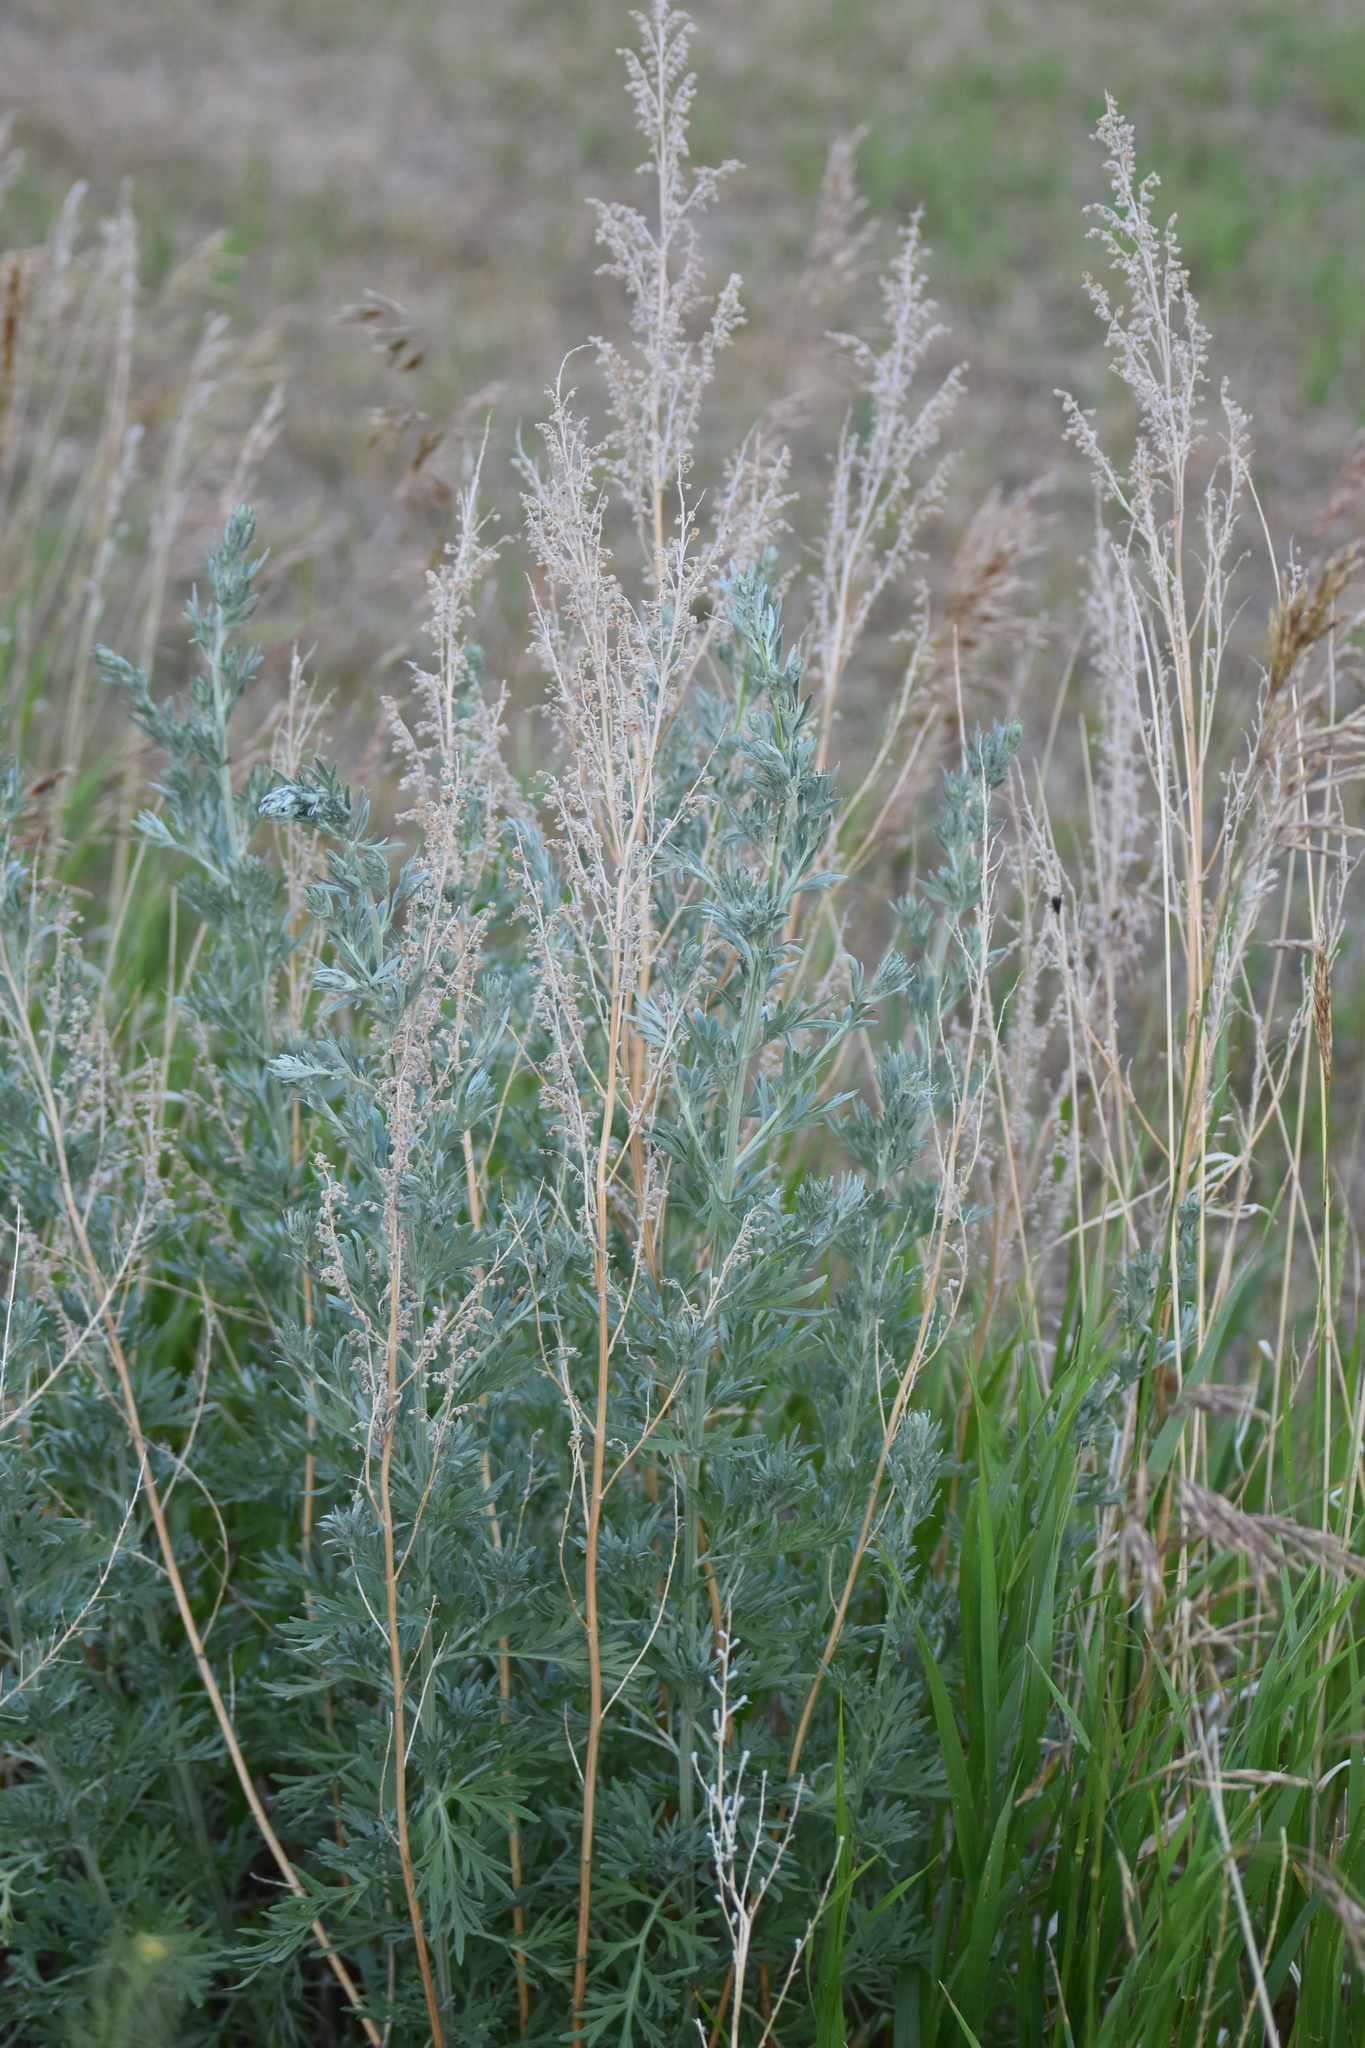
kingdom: Plantae
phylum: Tracheophyta
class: Magnoliopsida
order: Asterales
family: Asteraceae
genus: Artemisia
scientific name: Artemisia absinthium
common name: Wormwood
